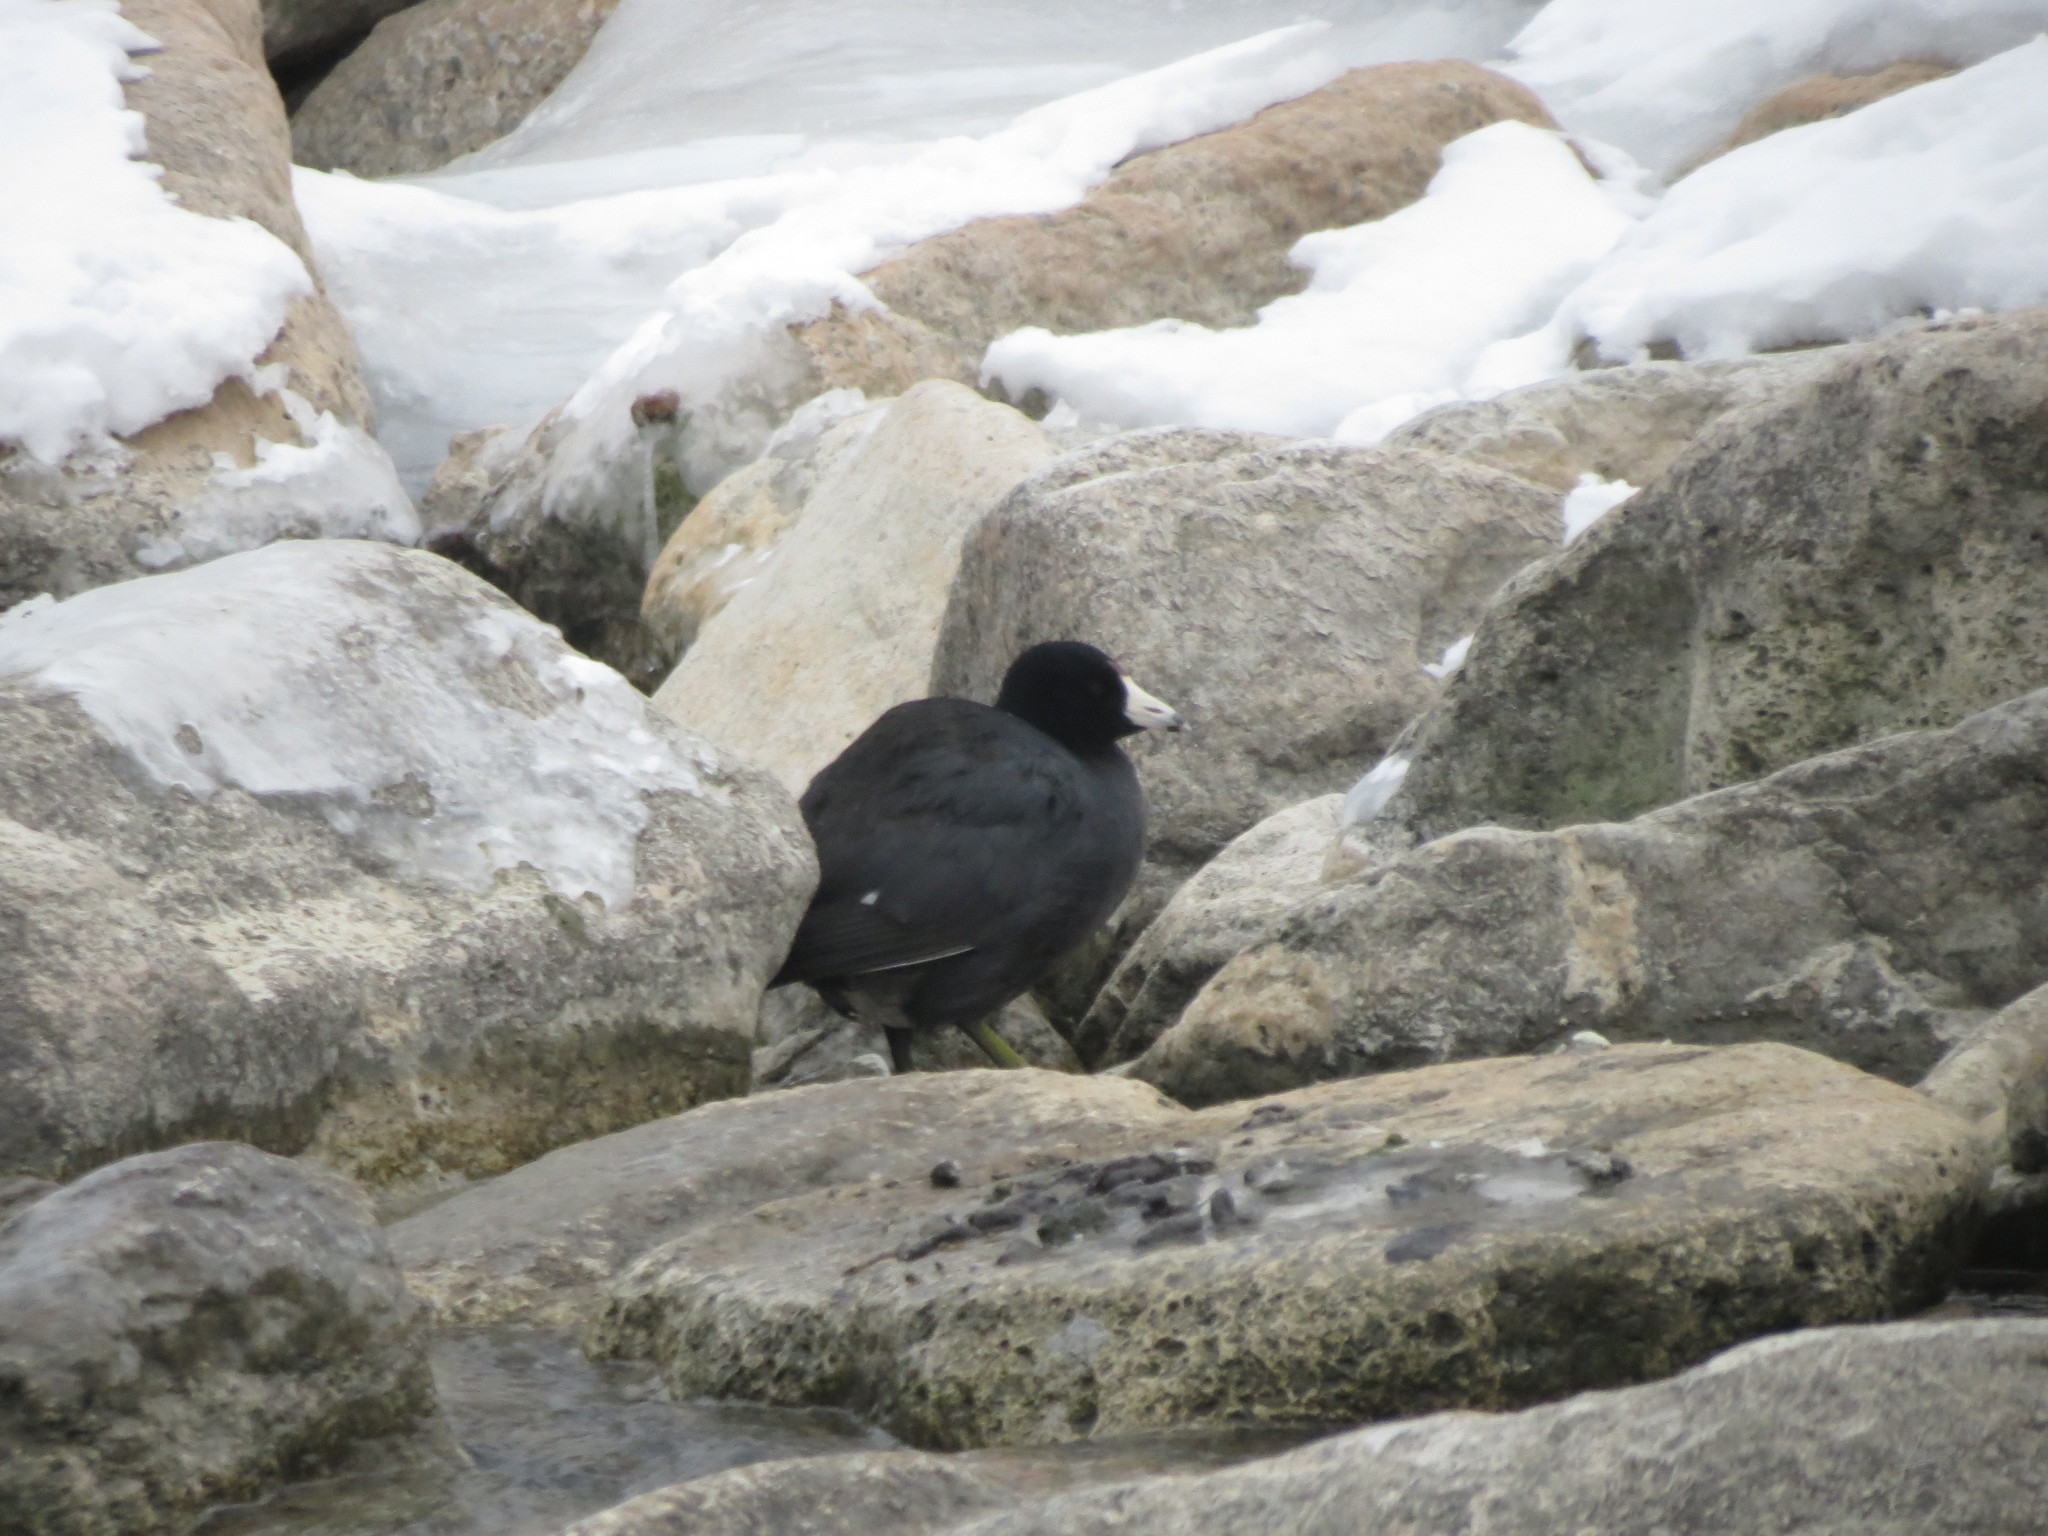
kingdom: Animalia
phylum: Chordata
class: Aves
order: Gruiformes
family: Rallidae
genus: Fulica
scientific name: Fulica americana
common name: American coot
